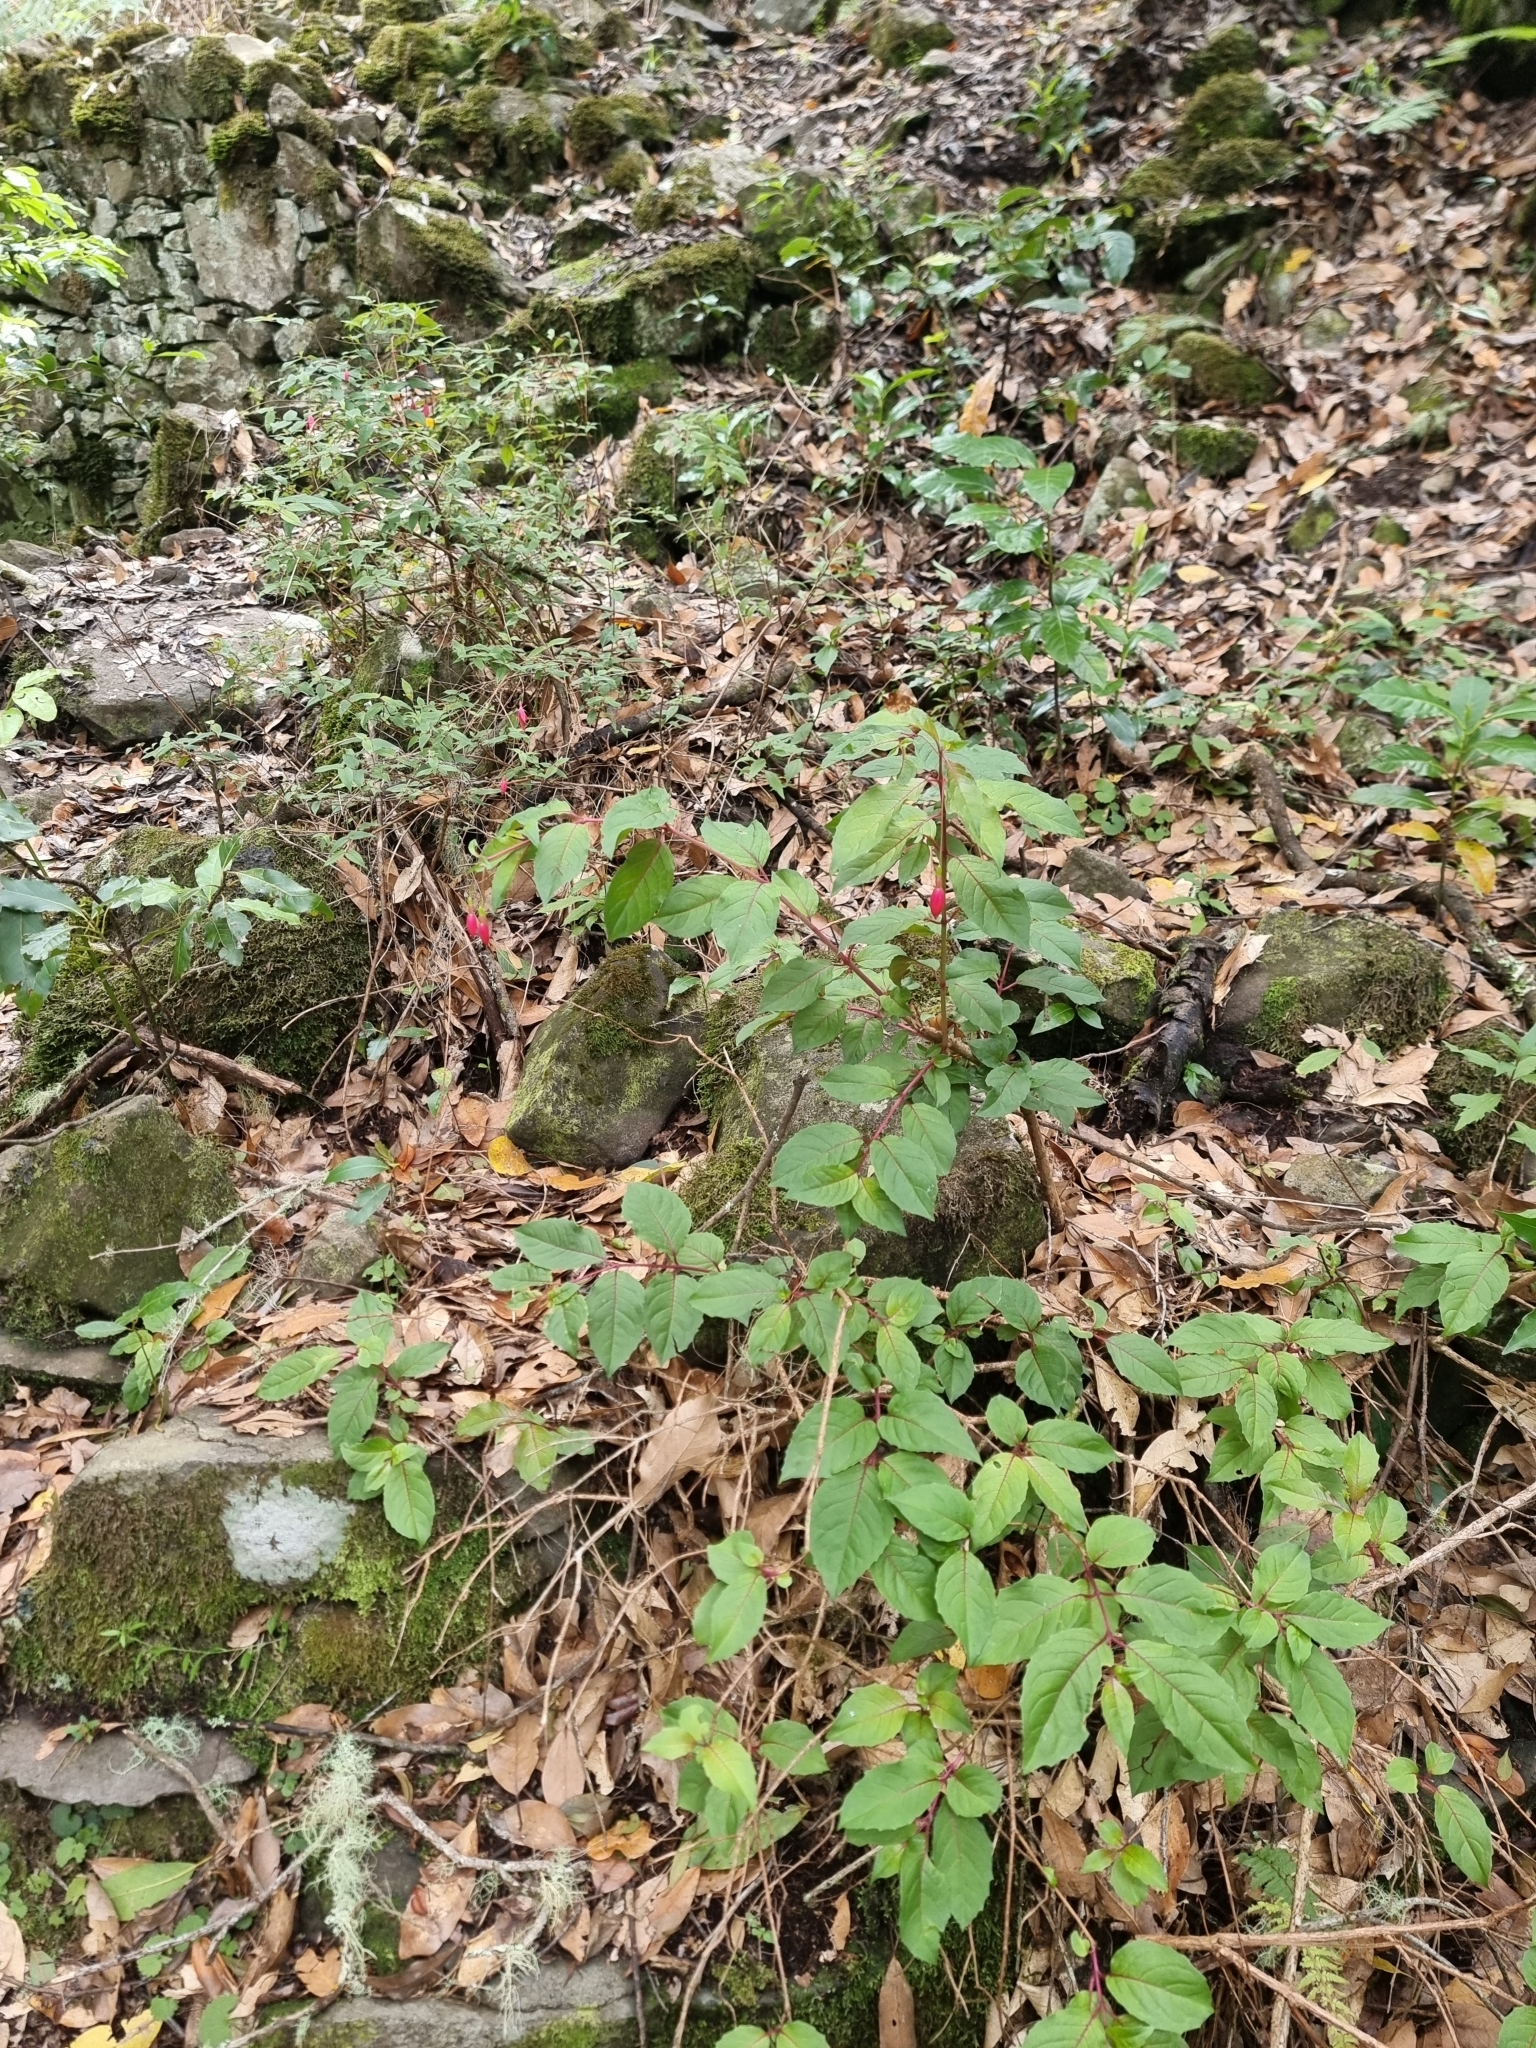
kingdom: Plantae
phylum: Tracheophyta
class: Magnoliopsida
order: Myrtales
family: Onagraceae
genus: Fuchsia
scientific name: Fuchsia magellanica
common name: Hardy fuchsia
